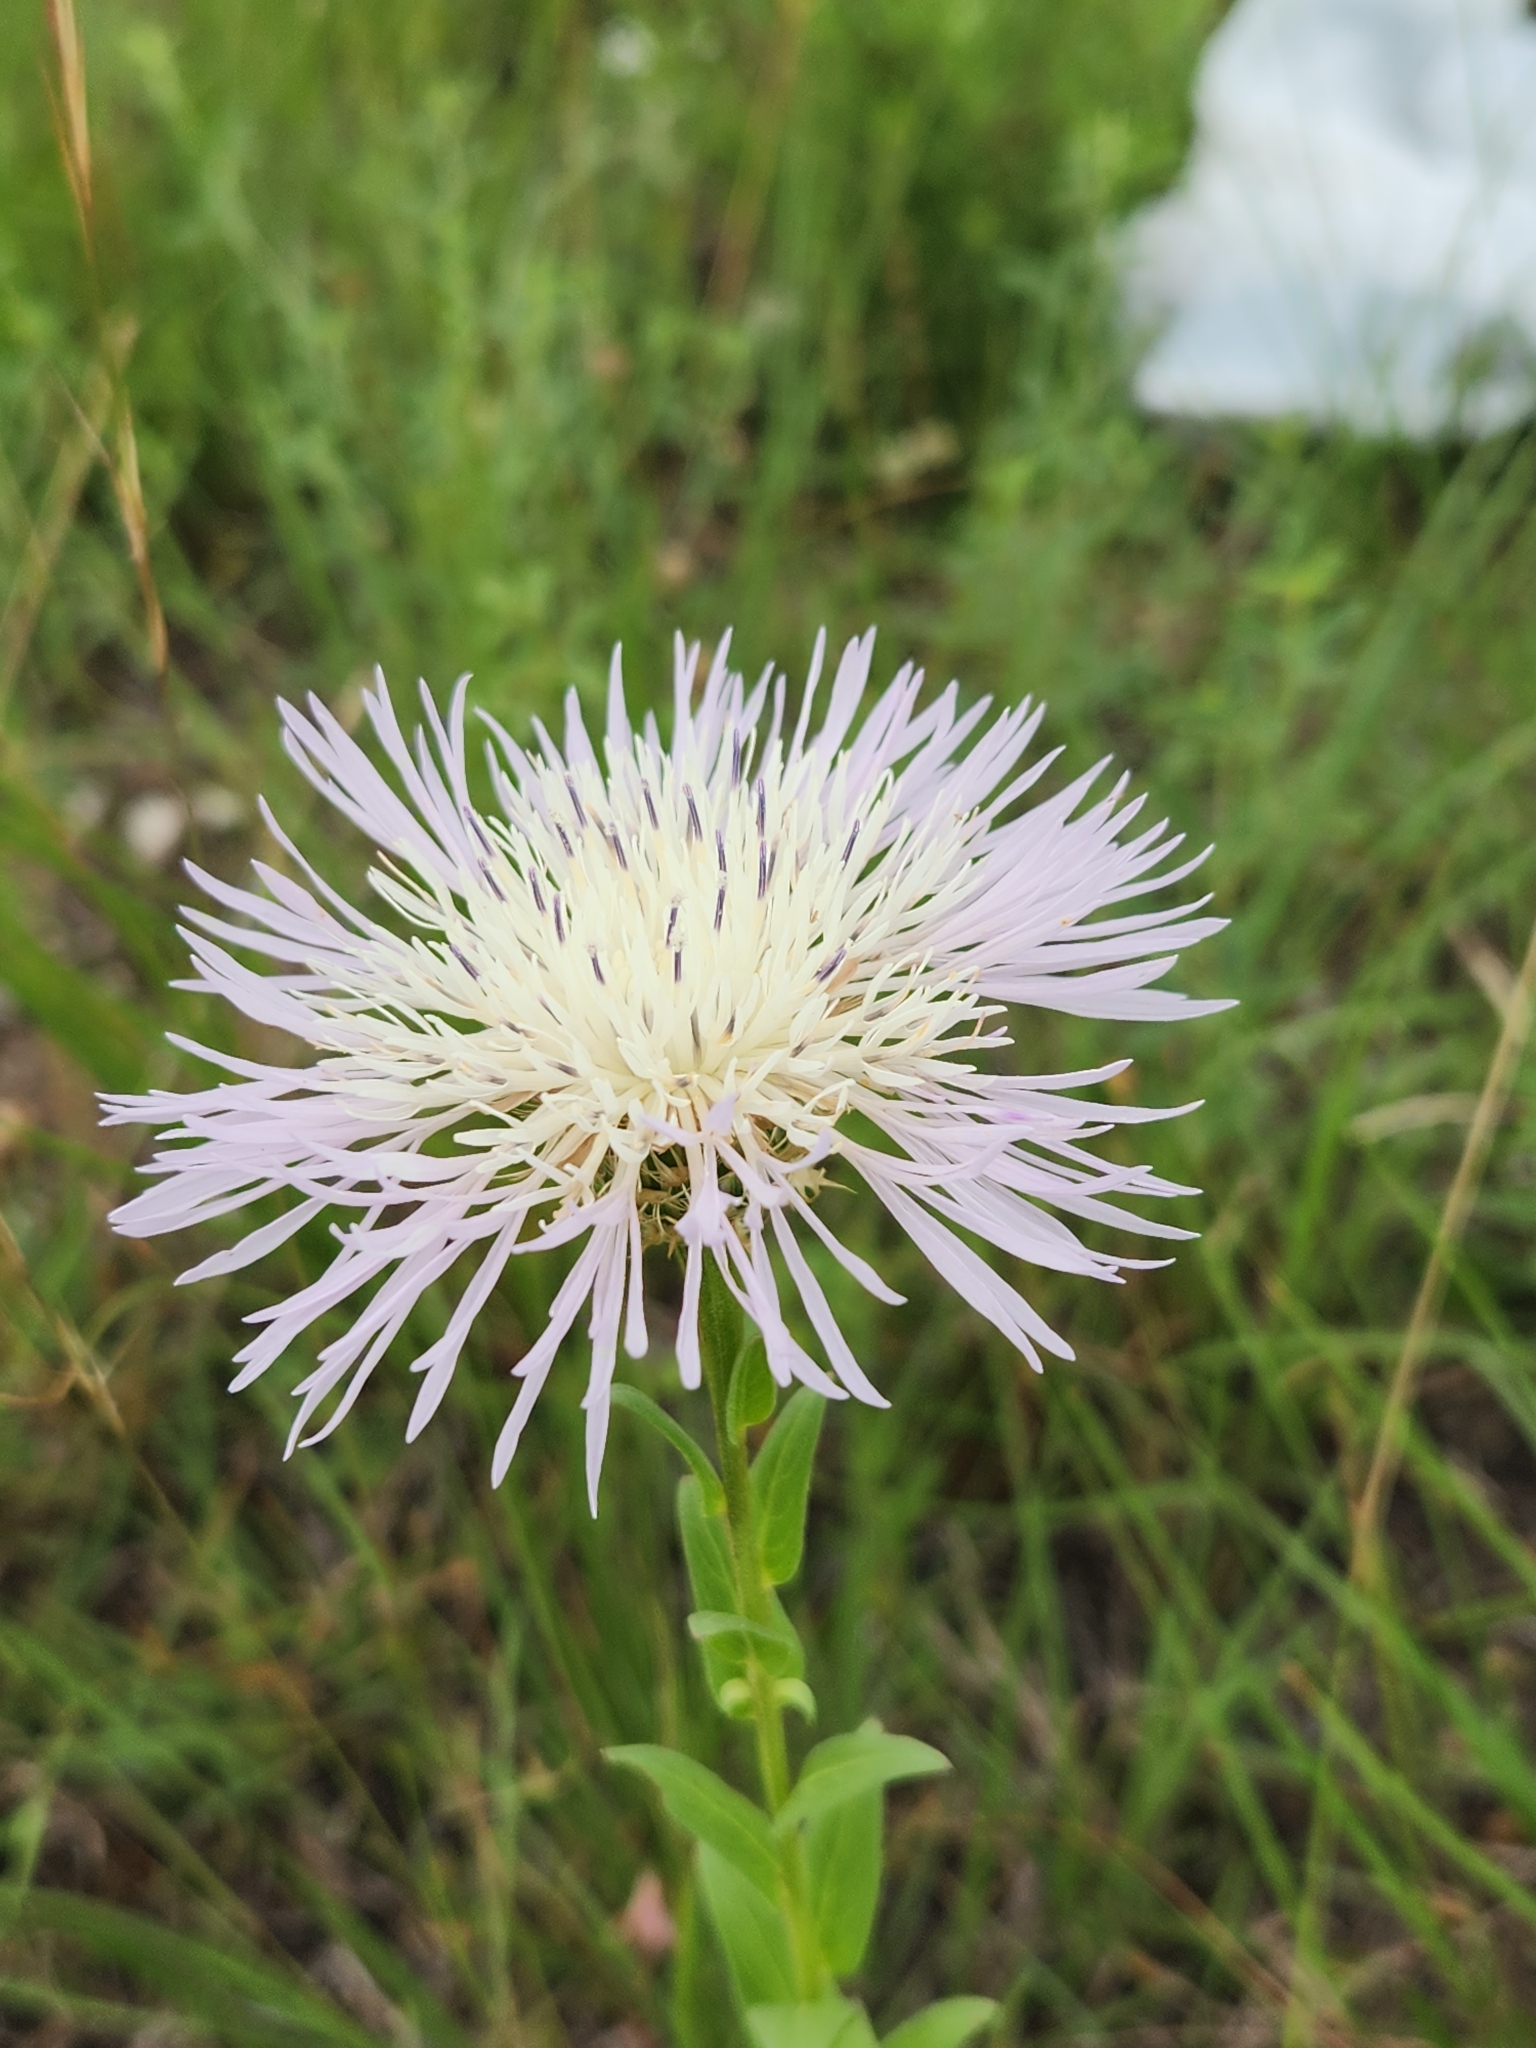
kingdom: Plantae
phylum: Tracheophyta
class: Magnoliopsida
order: Asterales
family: Asteraceae
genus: Plectocephalus
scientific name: Plectocephalus americanus
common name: American basket-flower
